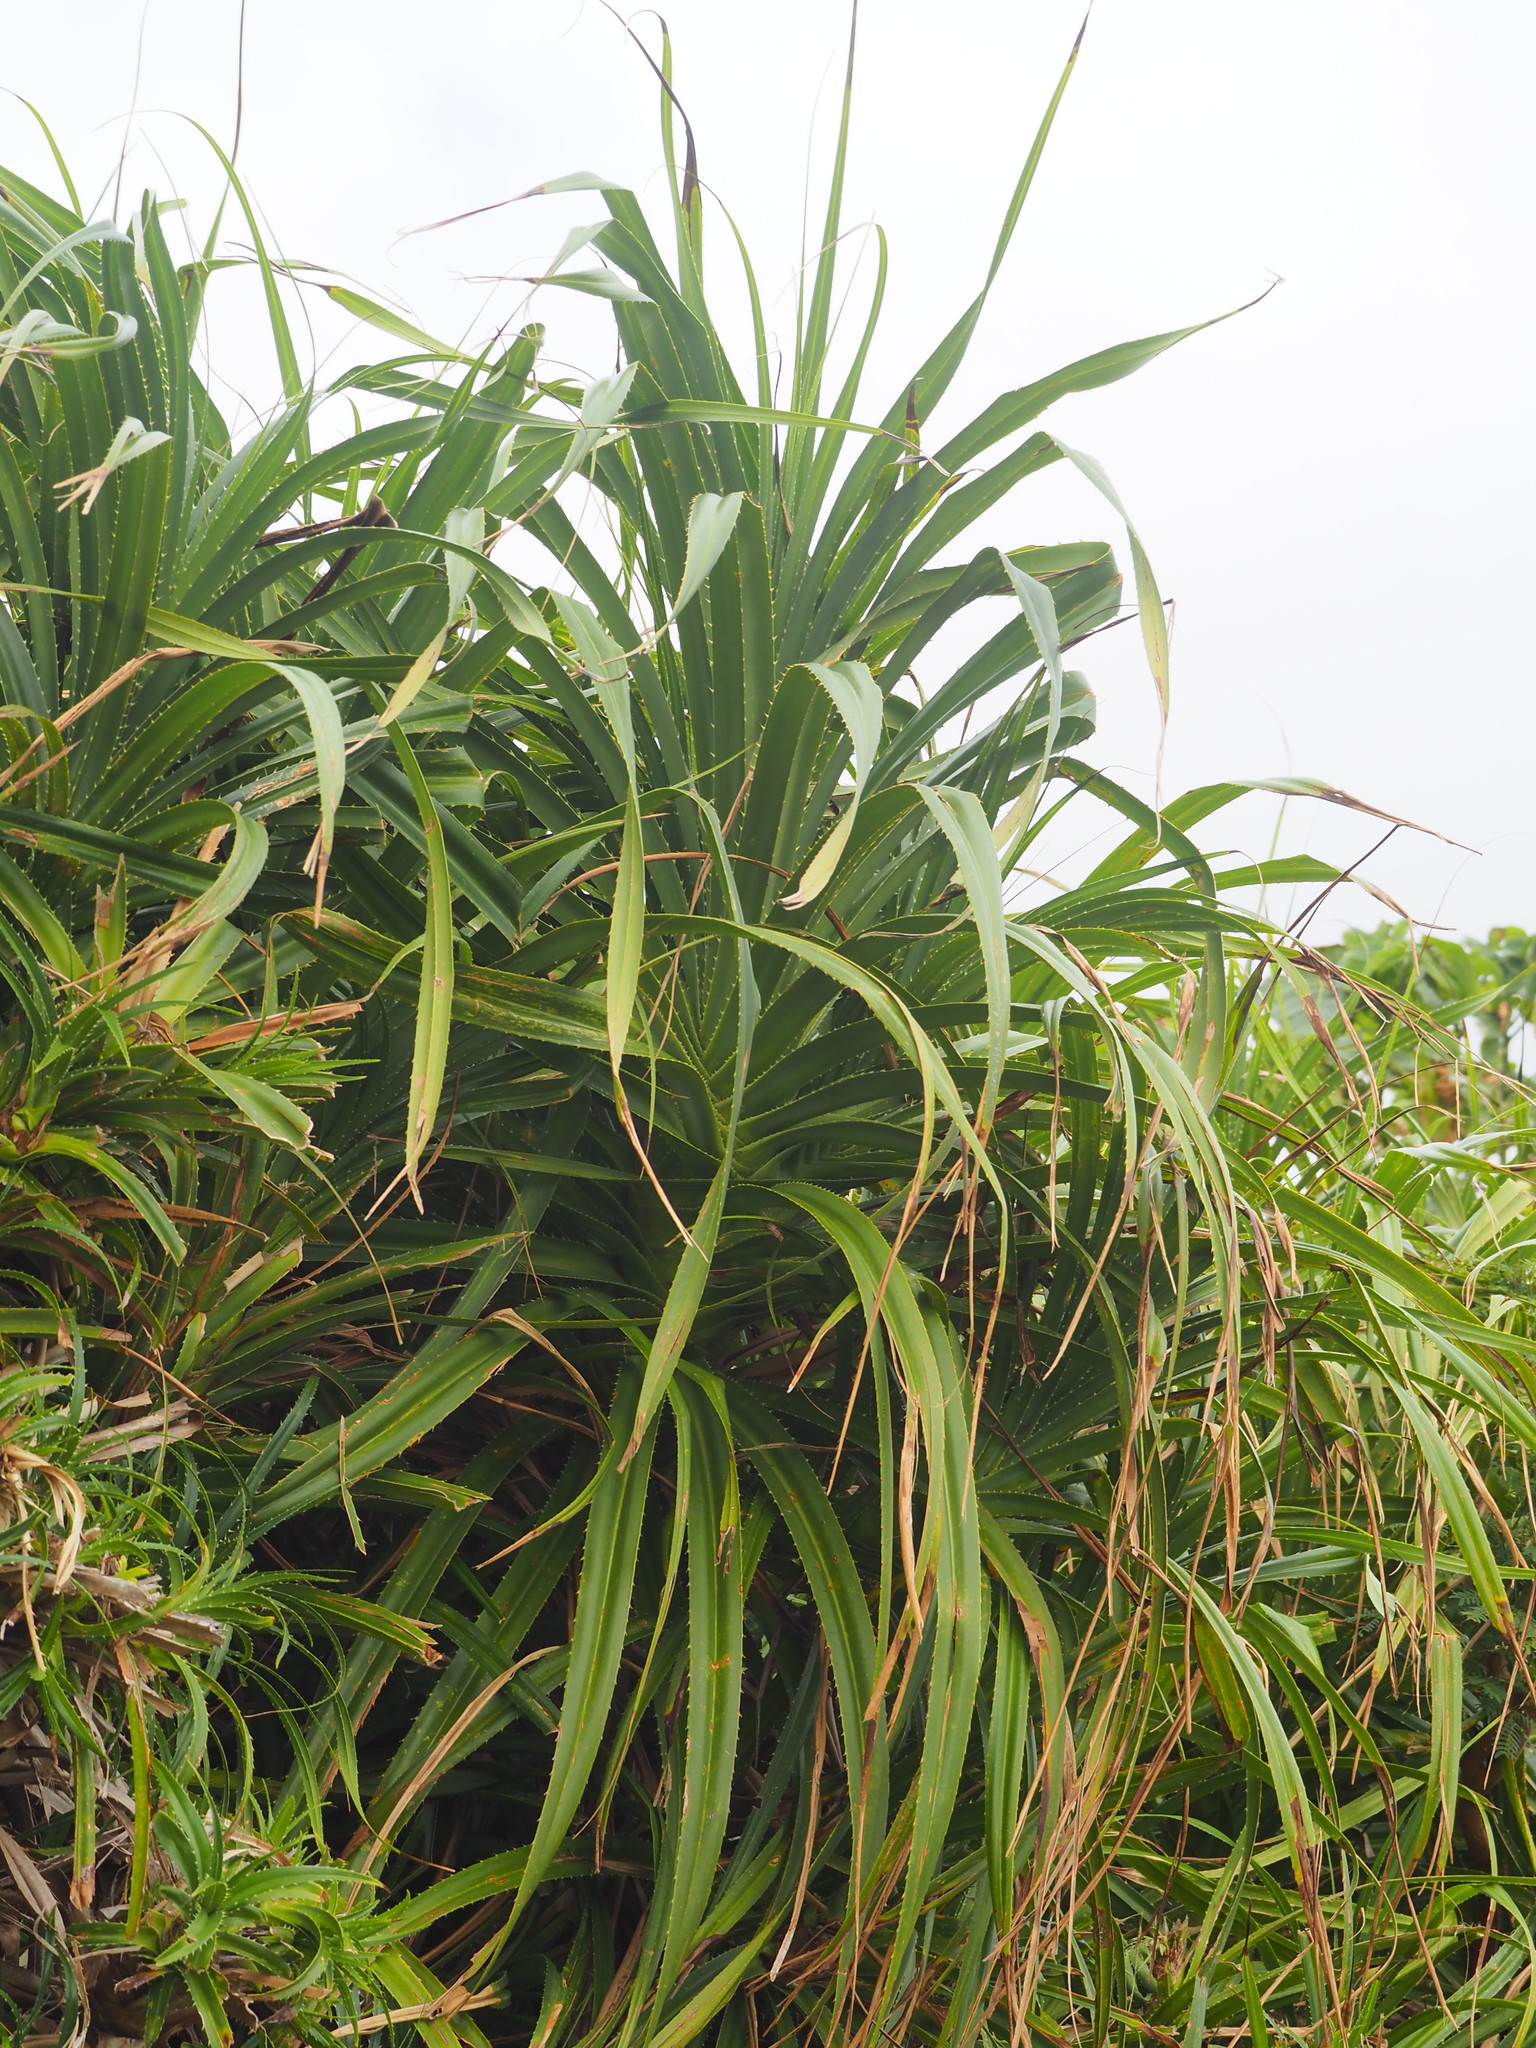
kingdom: Plantae
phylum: Tracheophyta
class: Liliopsida
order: Pandanales
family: Pandanaceae
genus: Pandanus
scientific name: Pandanus odorifer
